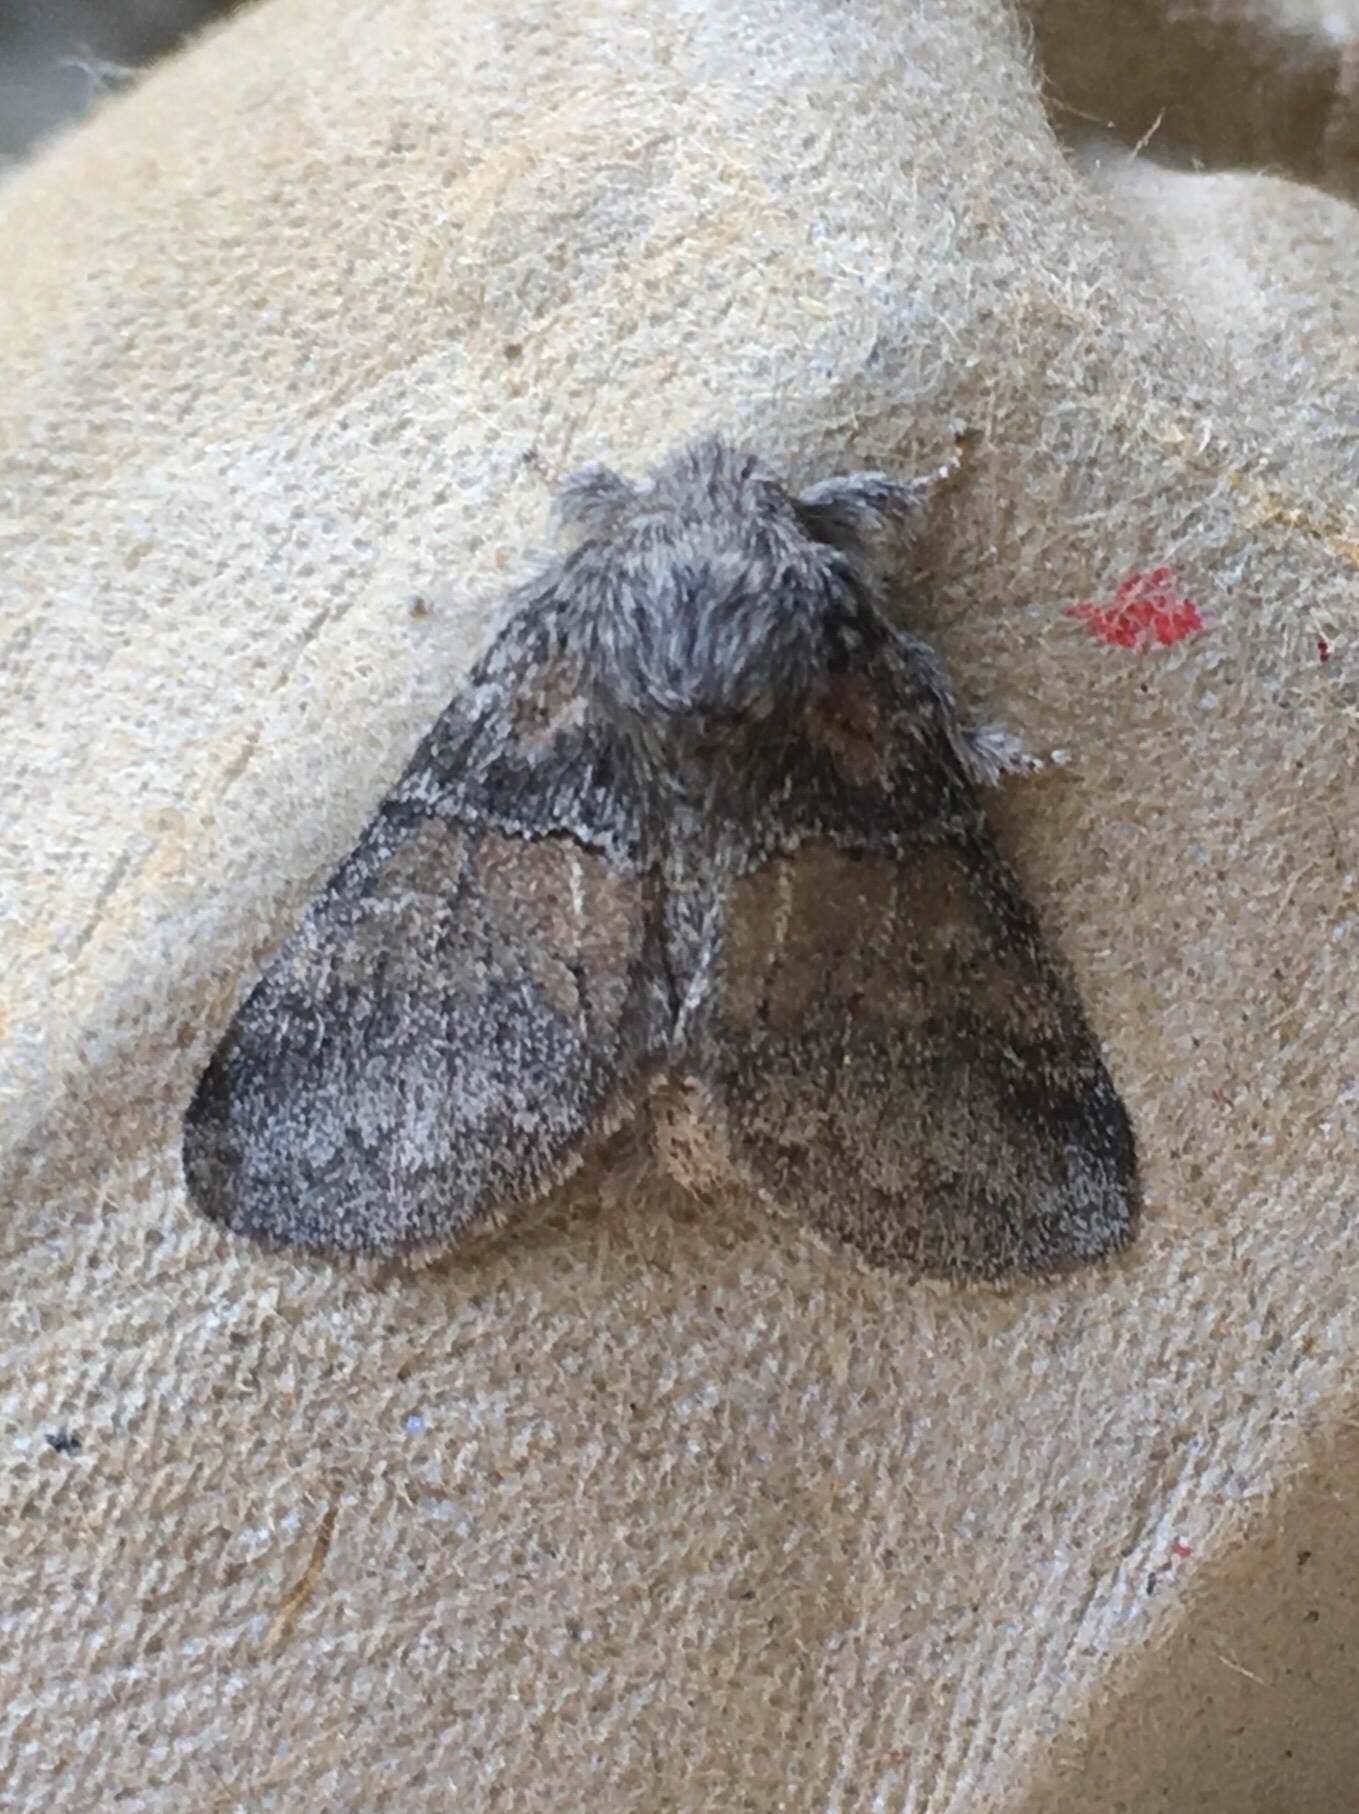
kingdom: Animalia
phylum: Arthropoda
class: Insecta
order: Lepidoptera
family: Notodontidae
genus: Gluphisia
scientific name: Gluphisia septentrionis
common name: Common gluphisia
